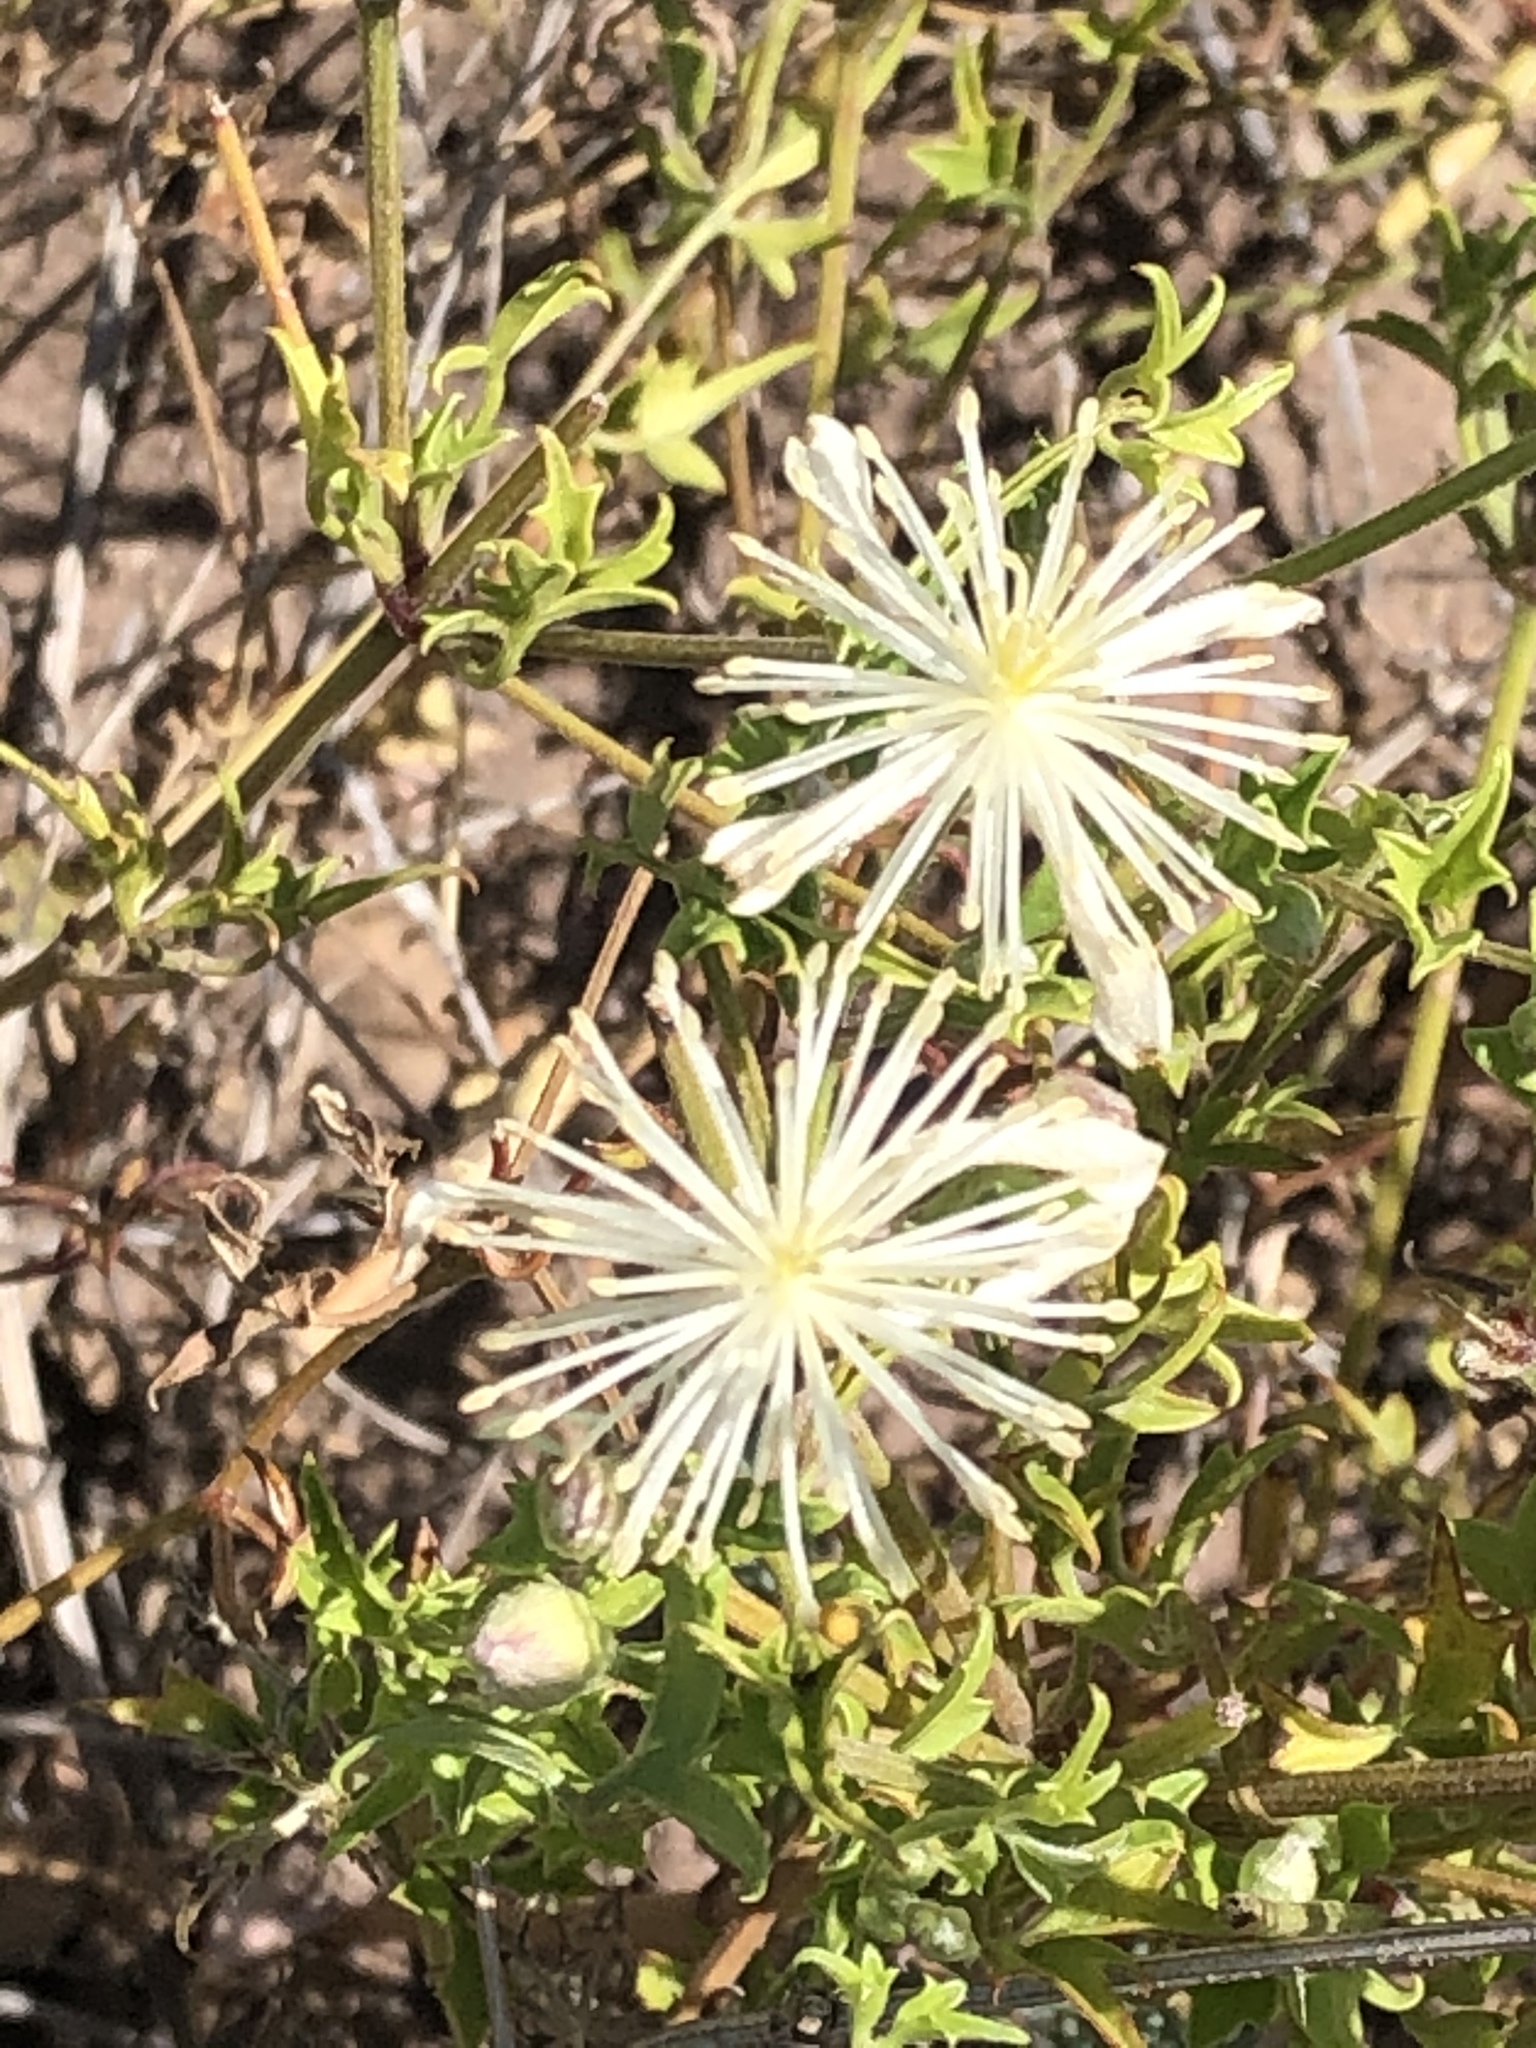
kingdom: Plantae
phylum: Tracheophyta
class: Magnoliopsida
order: Ranunculales
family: Ranunculaceae
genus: Clematis
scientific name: Clematis drummondii
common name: Texas virgin's bower
